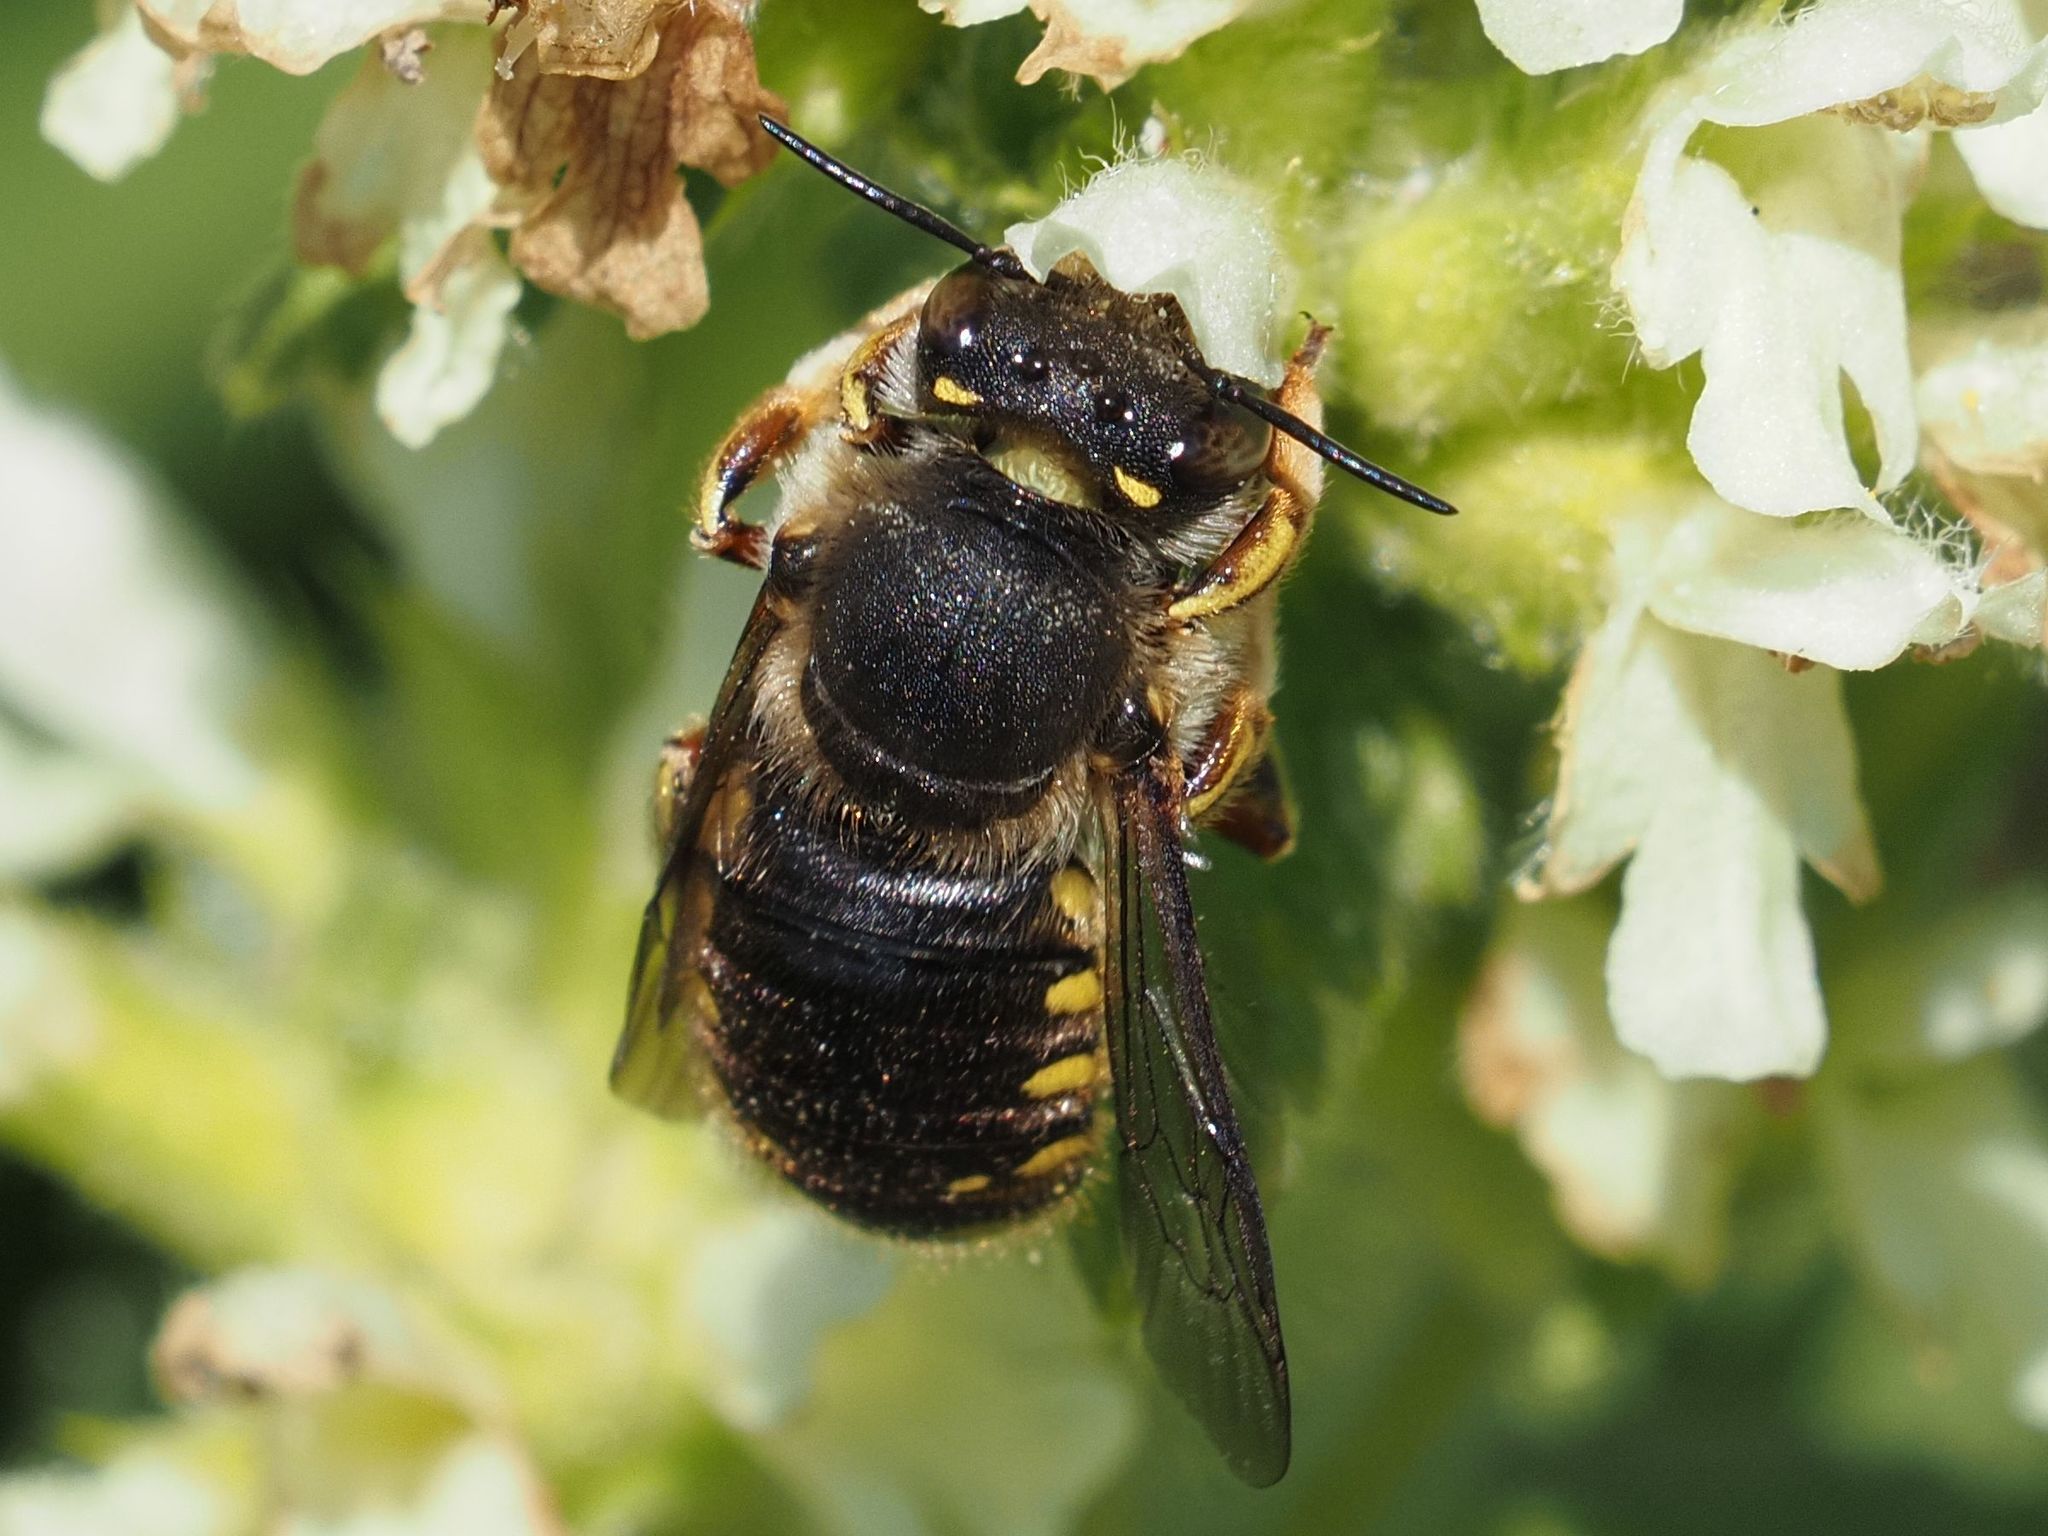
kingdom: Animalia
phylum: Arthropoda
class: Insecta
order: Hymenoptera
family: Megachilidae
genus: Anthidium
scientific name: Anthidium manicatum
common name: Wool carder bee
